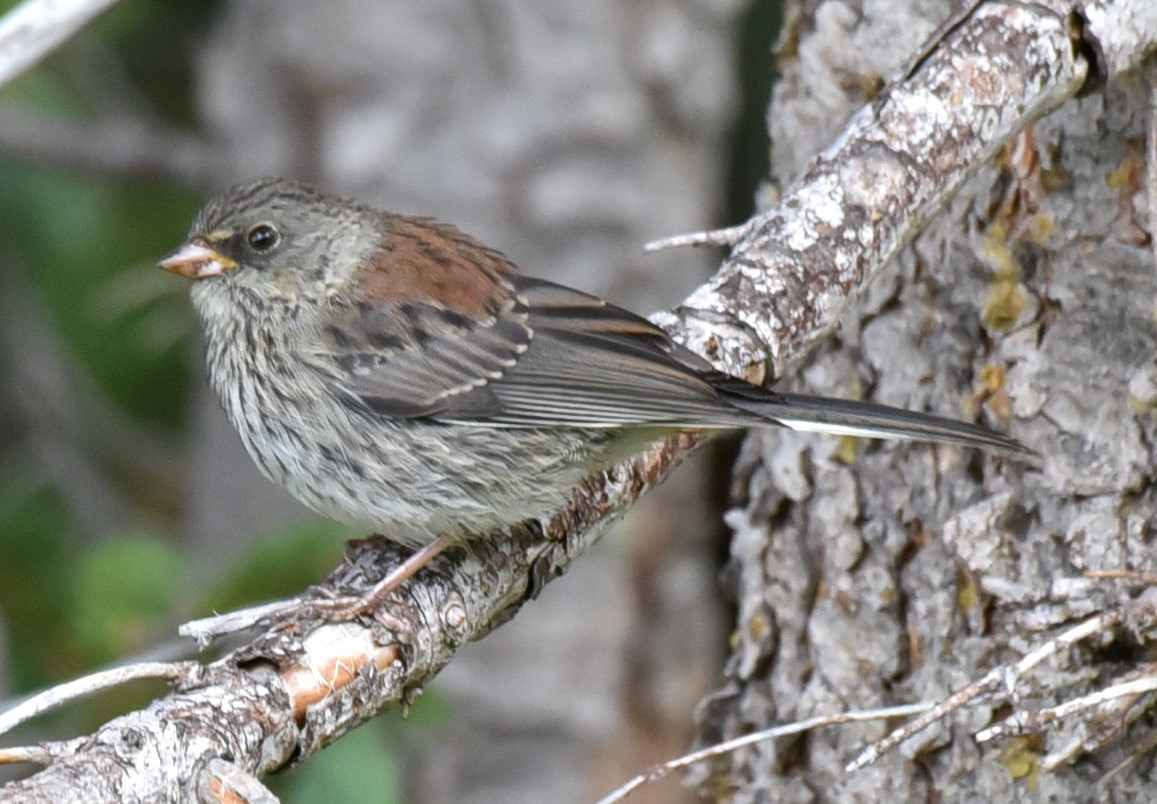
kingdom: Animalia
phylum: Chordata
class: Aves
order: Passeriformes
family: Passerellidae
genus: Junco
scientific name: Junco hyemalis
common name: Dark-eyed junco
